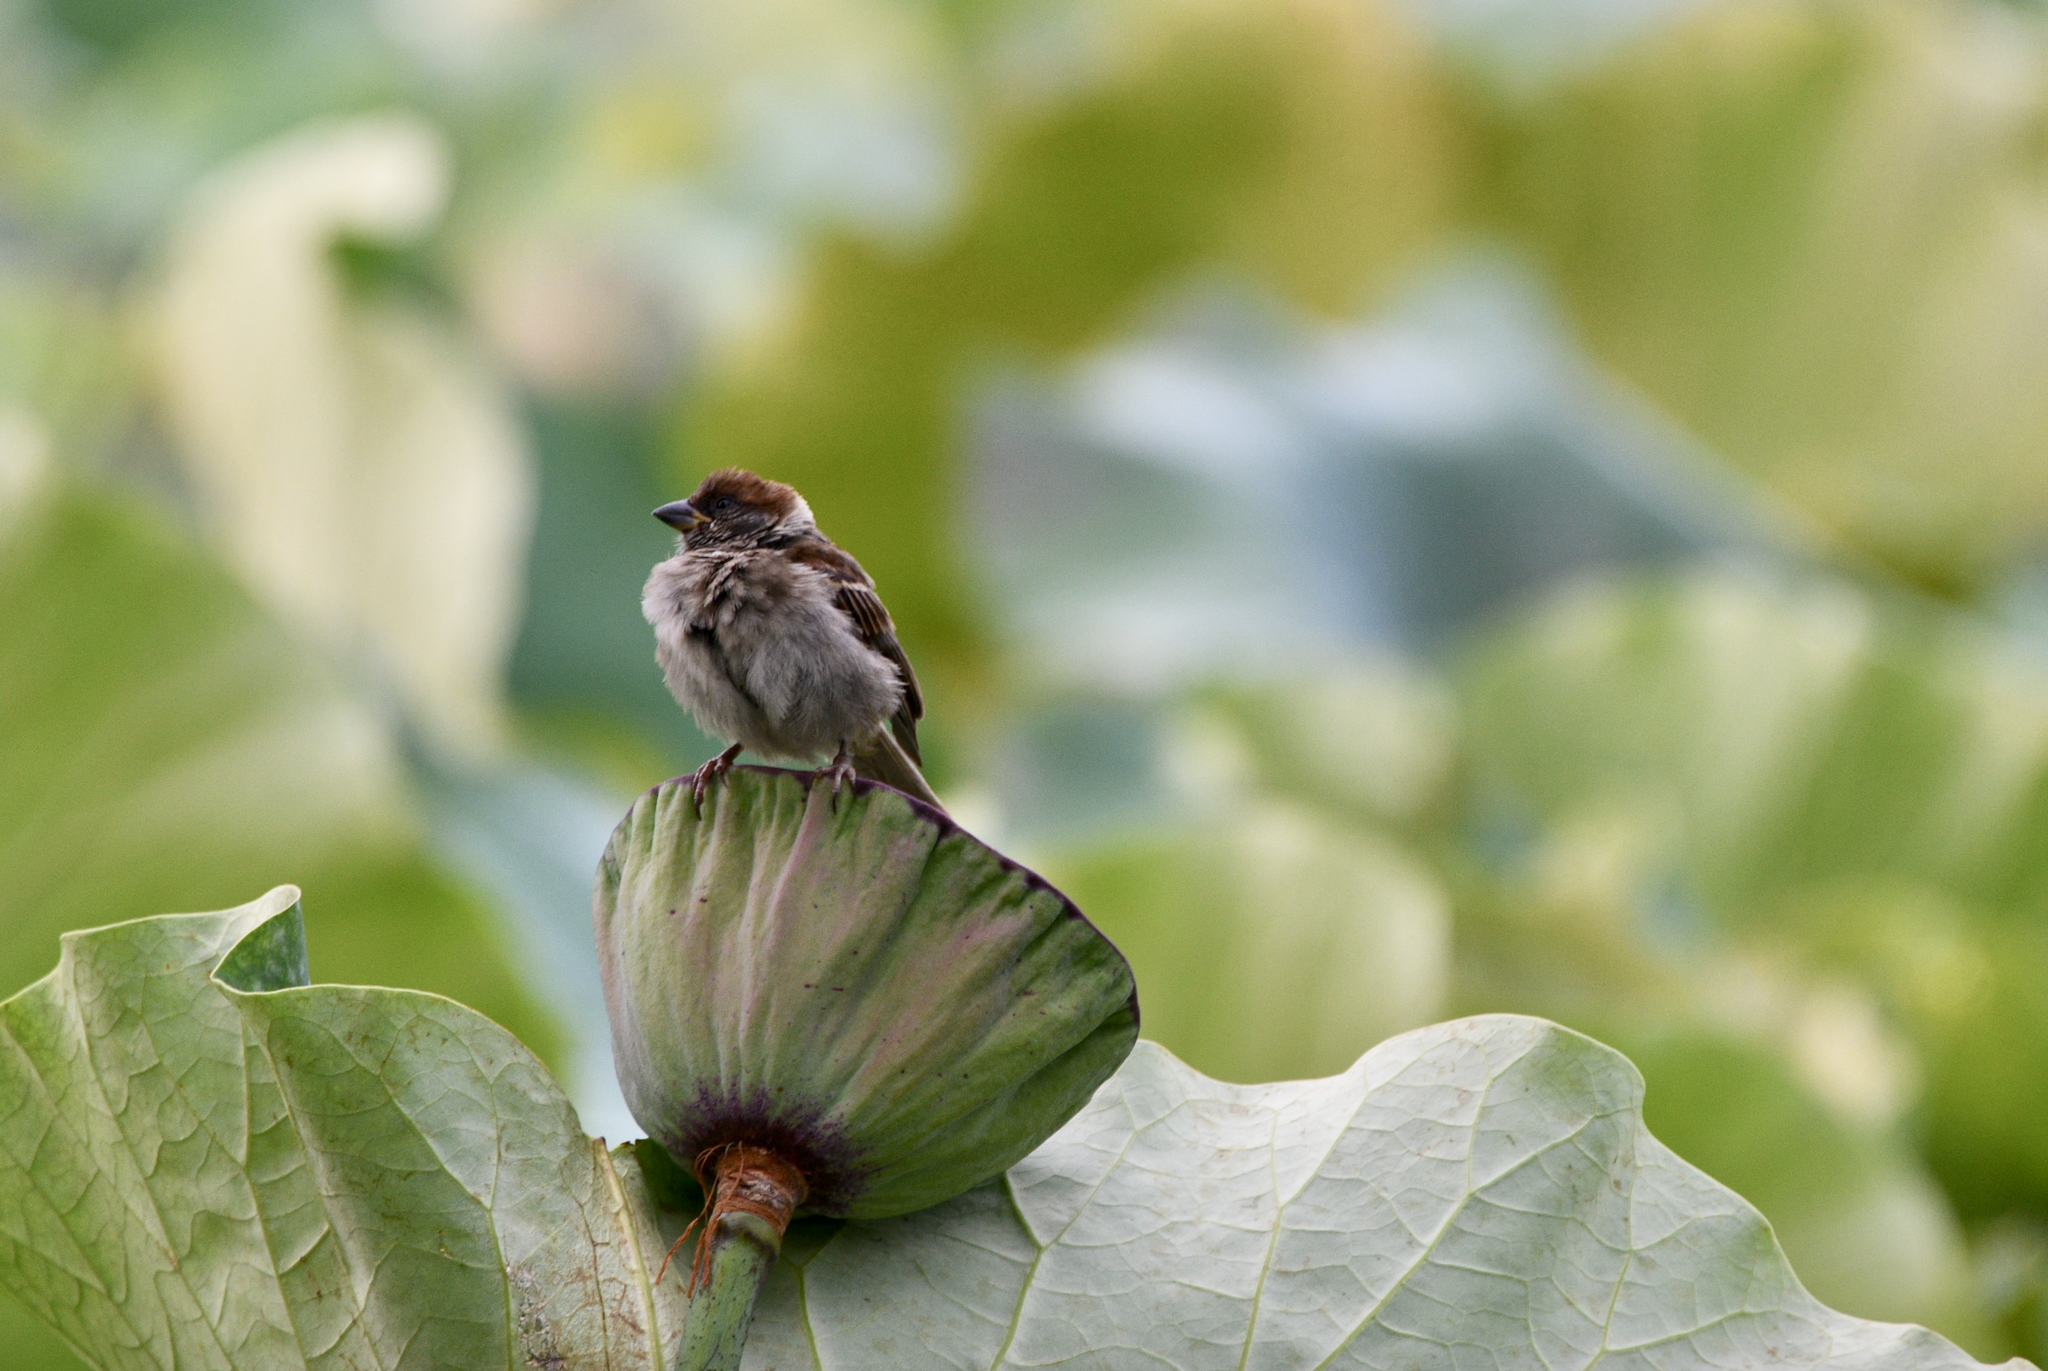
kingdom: Animalia
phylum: Chordata
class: Aves
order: Passeriformes
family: Passeridae
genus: Passer
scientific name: Passer montanus
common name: Eurasian tree sparrow
